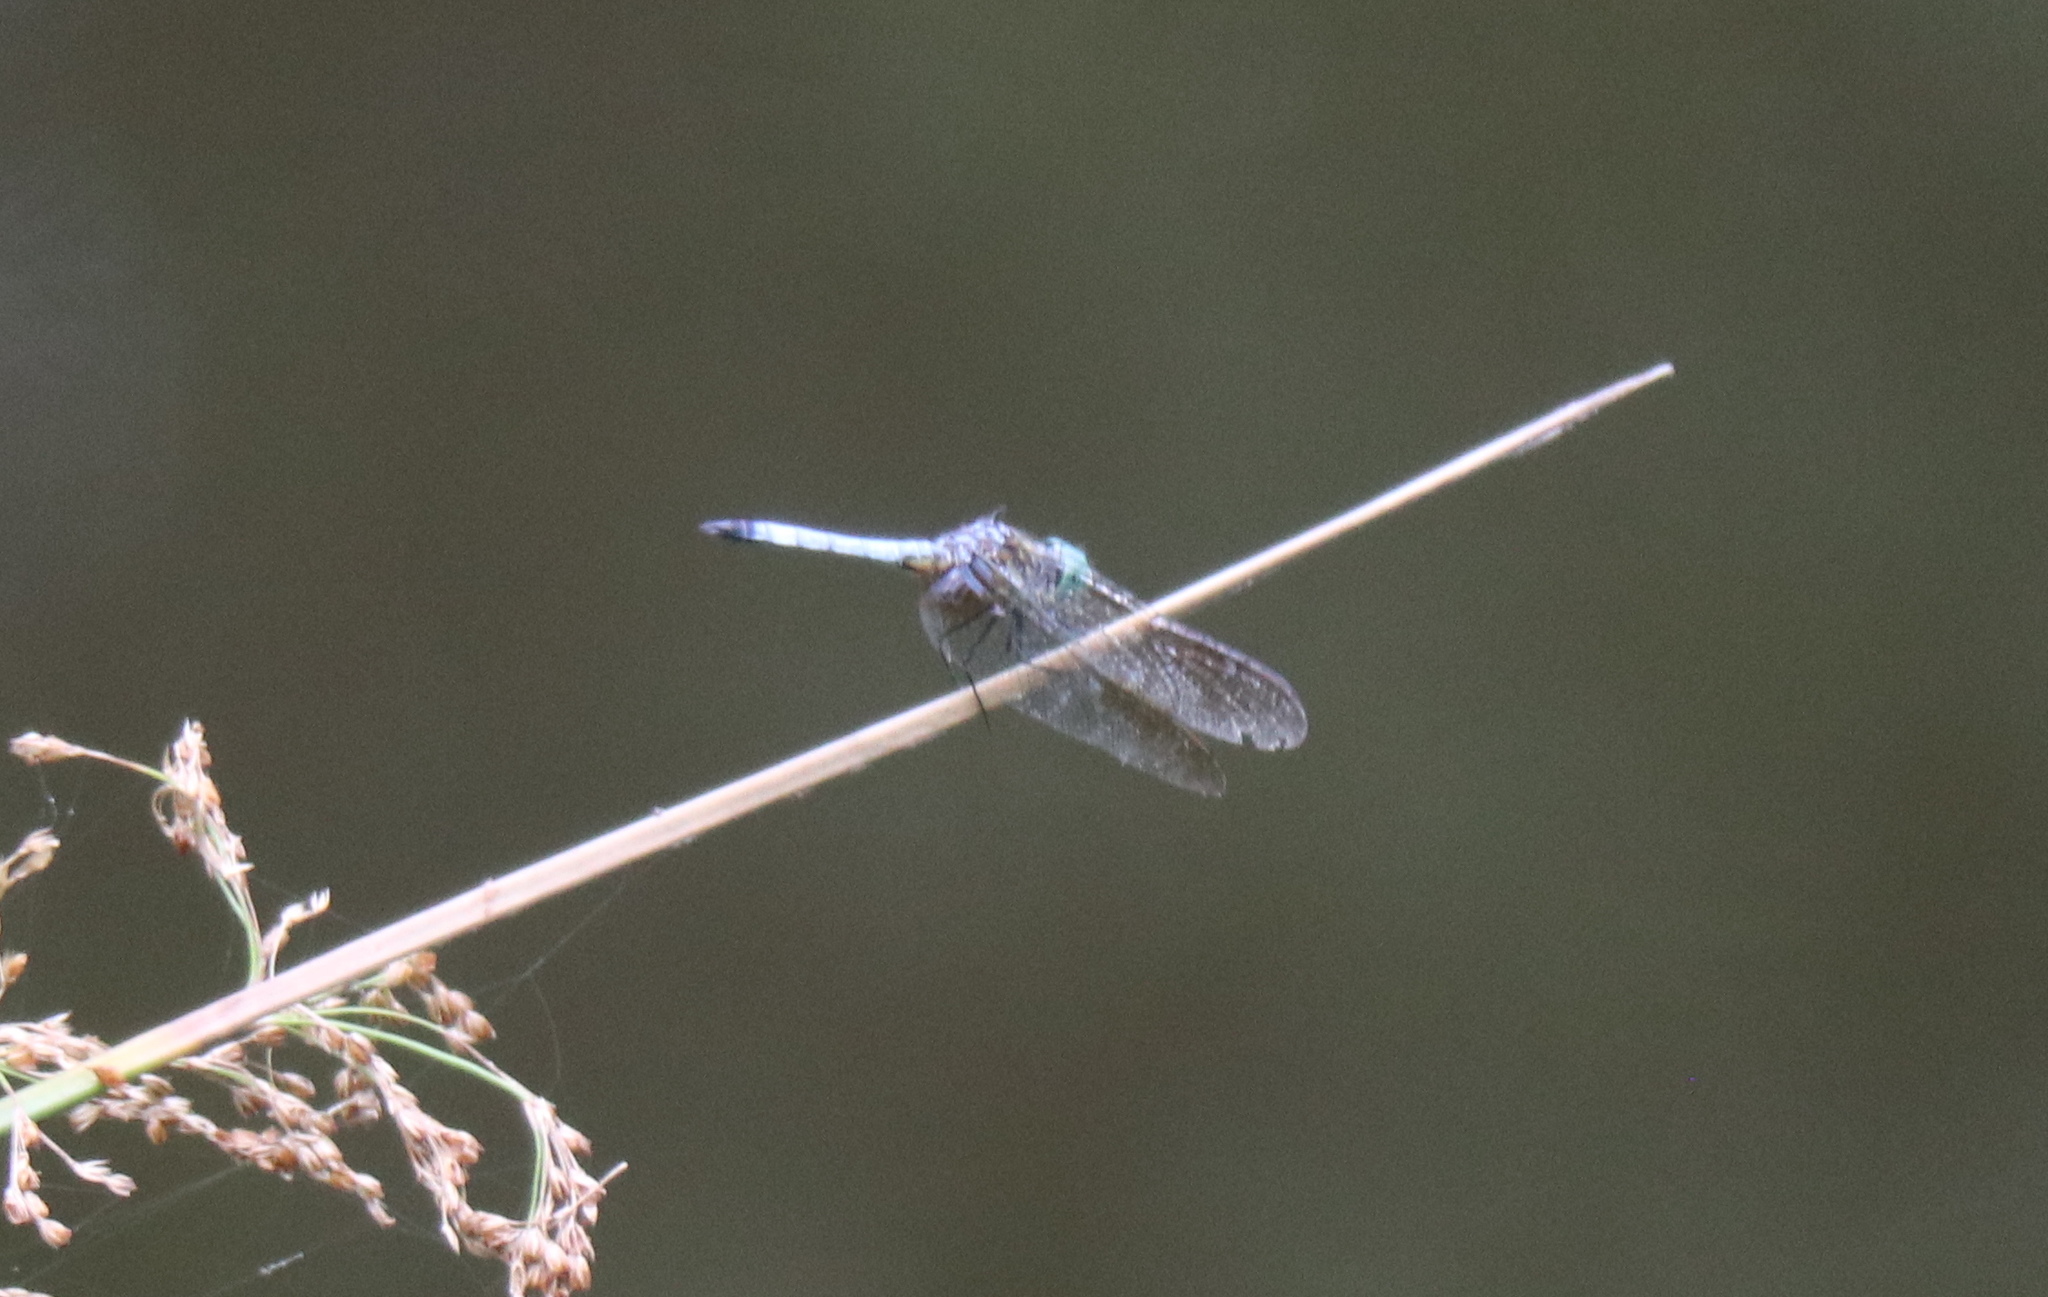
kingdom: Animalia
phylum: Arthropoda
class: Insecta
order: Odonata
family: Libellulidae
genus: Pachydiplax
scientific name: Pachydiplax longipennis
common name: Blue dasher
